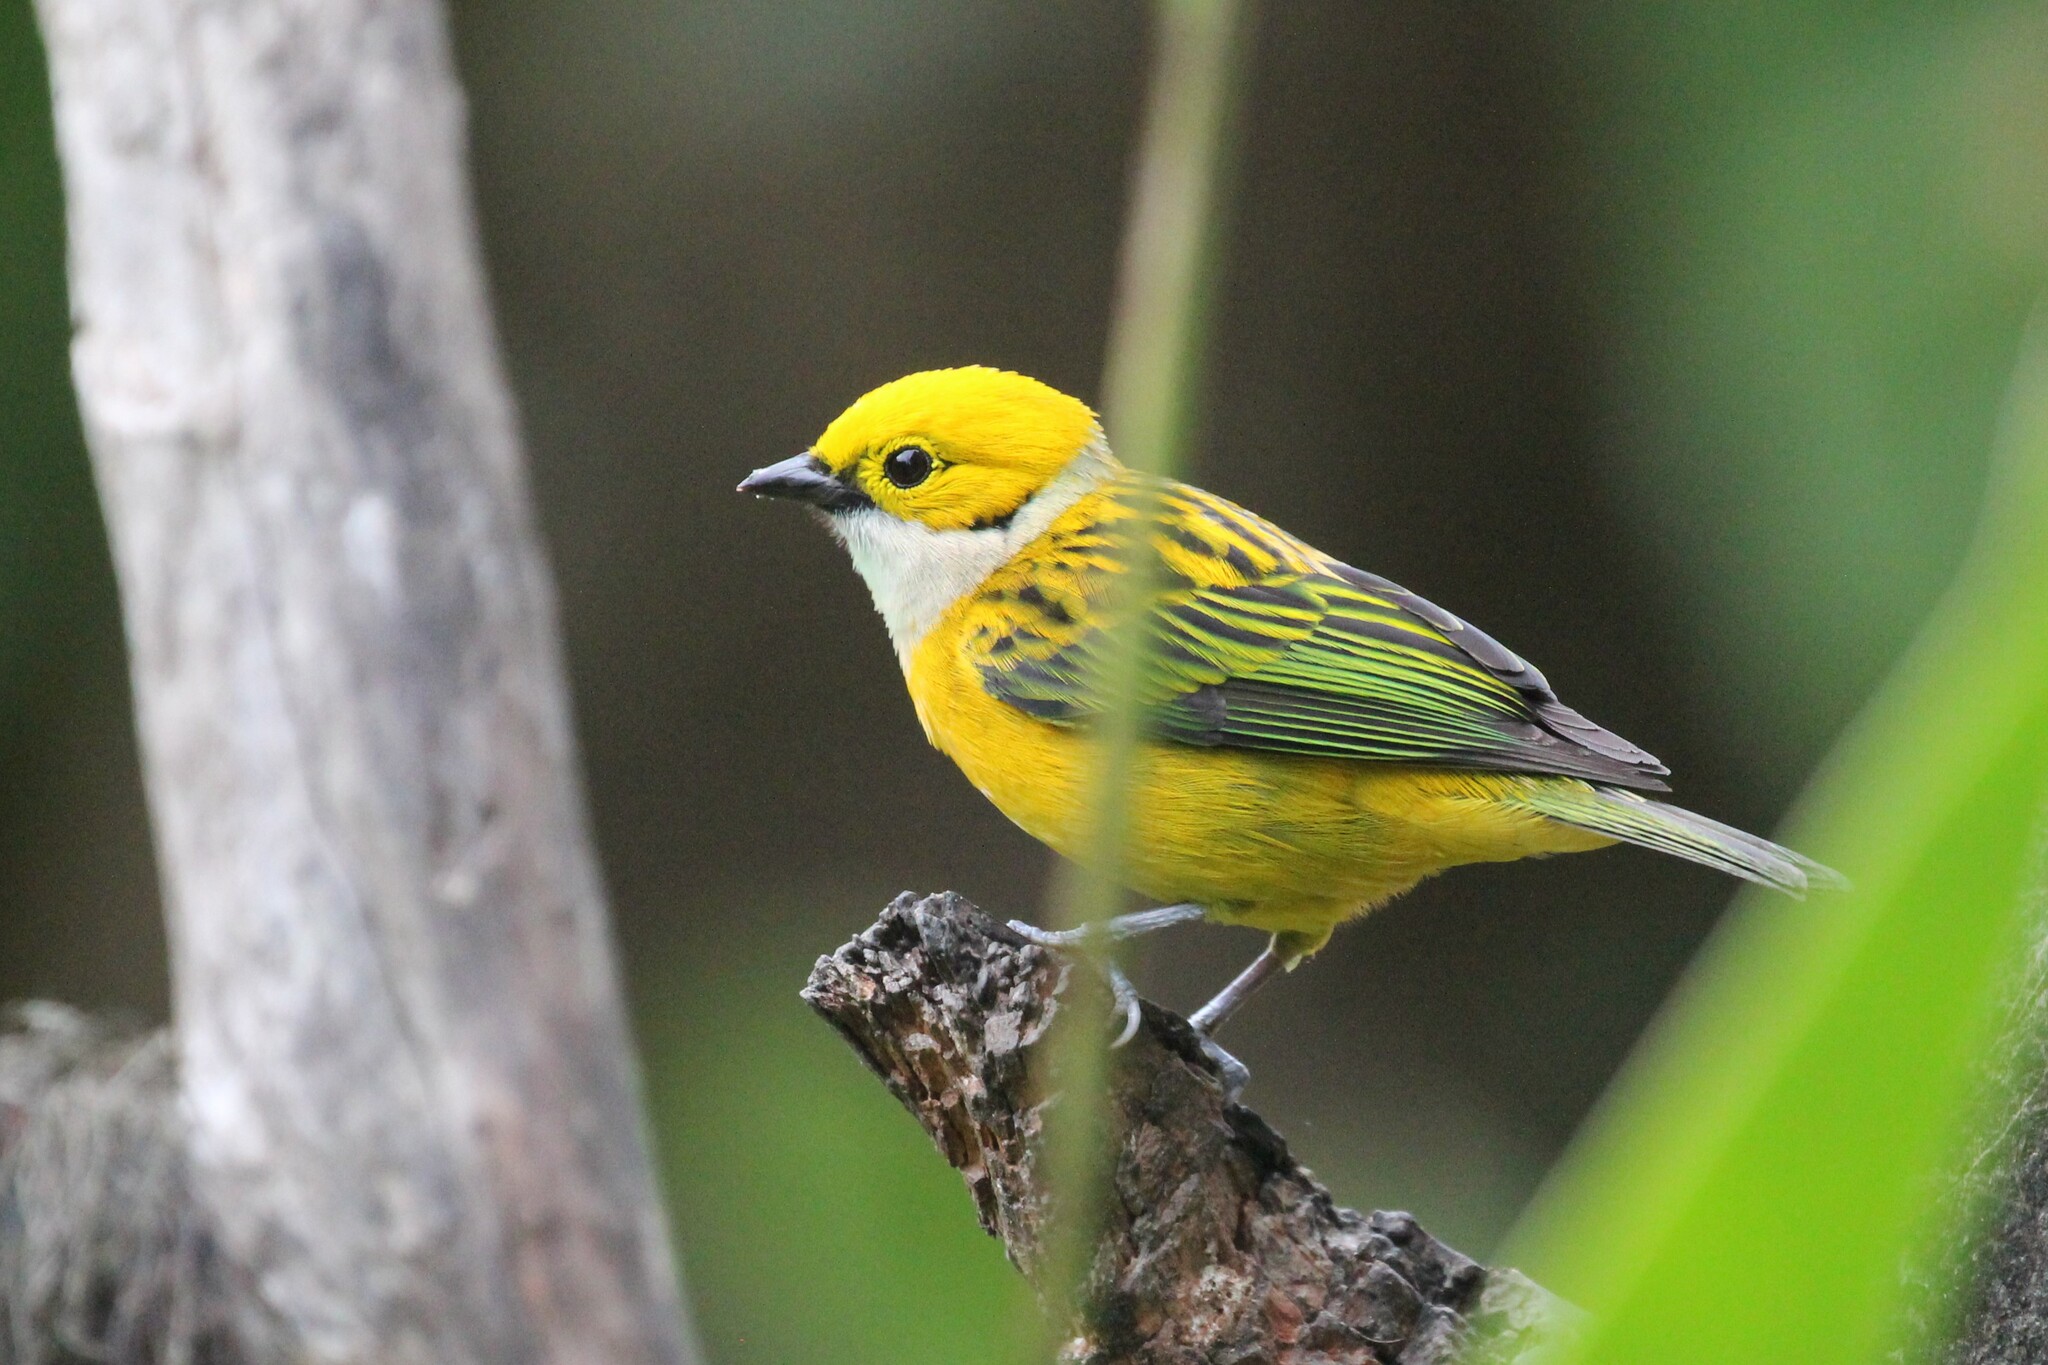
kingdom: Animalia
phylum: Chordata
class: Aves
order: Passeriformes
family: Thraupidae
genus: Tangara
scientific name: Tangara icterocephala
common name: Silver-throated tanager
